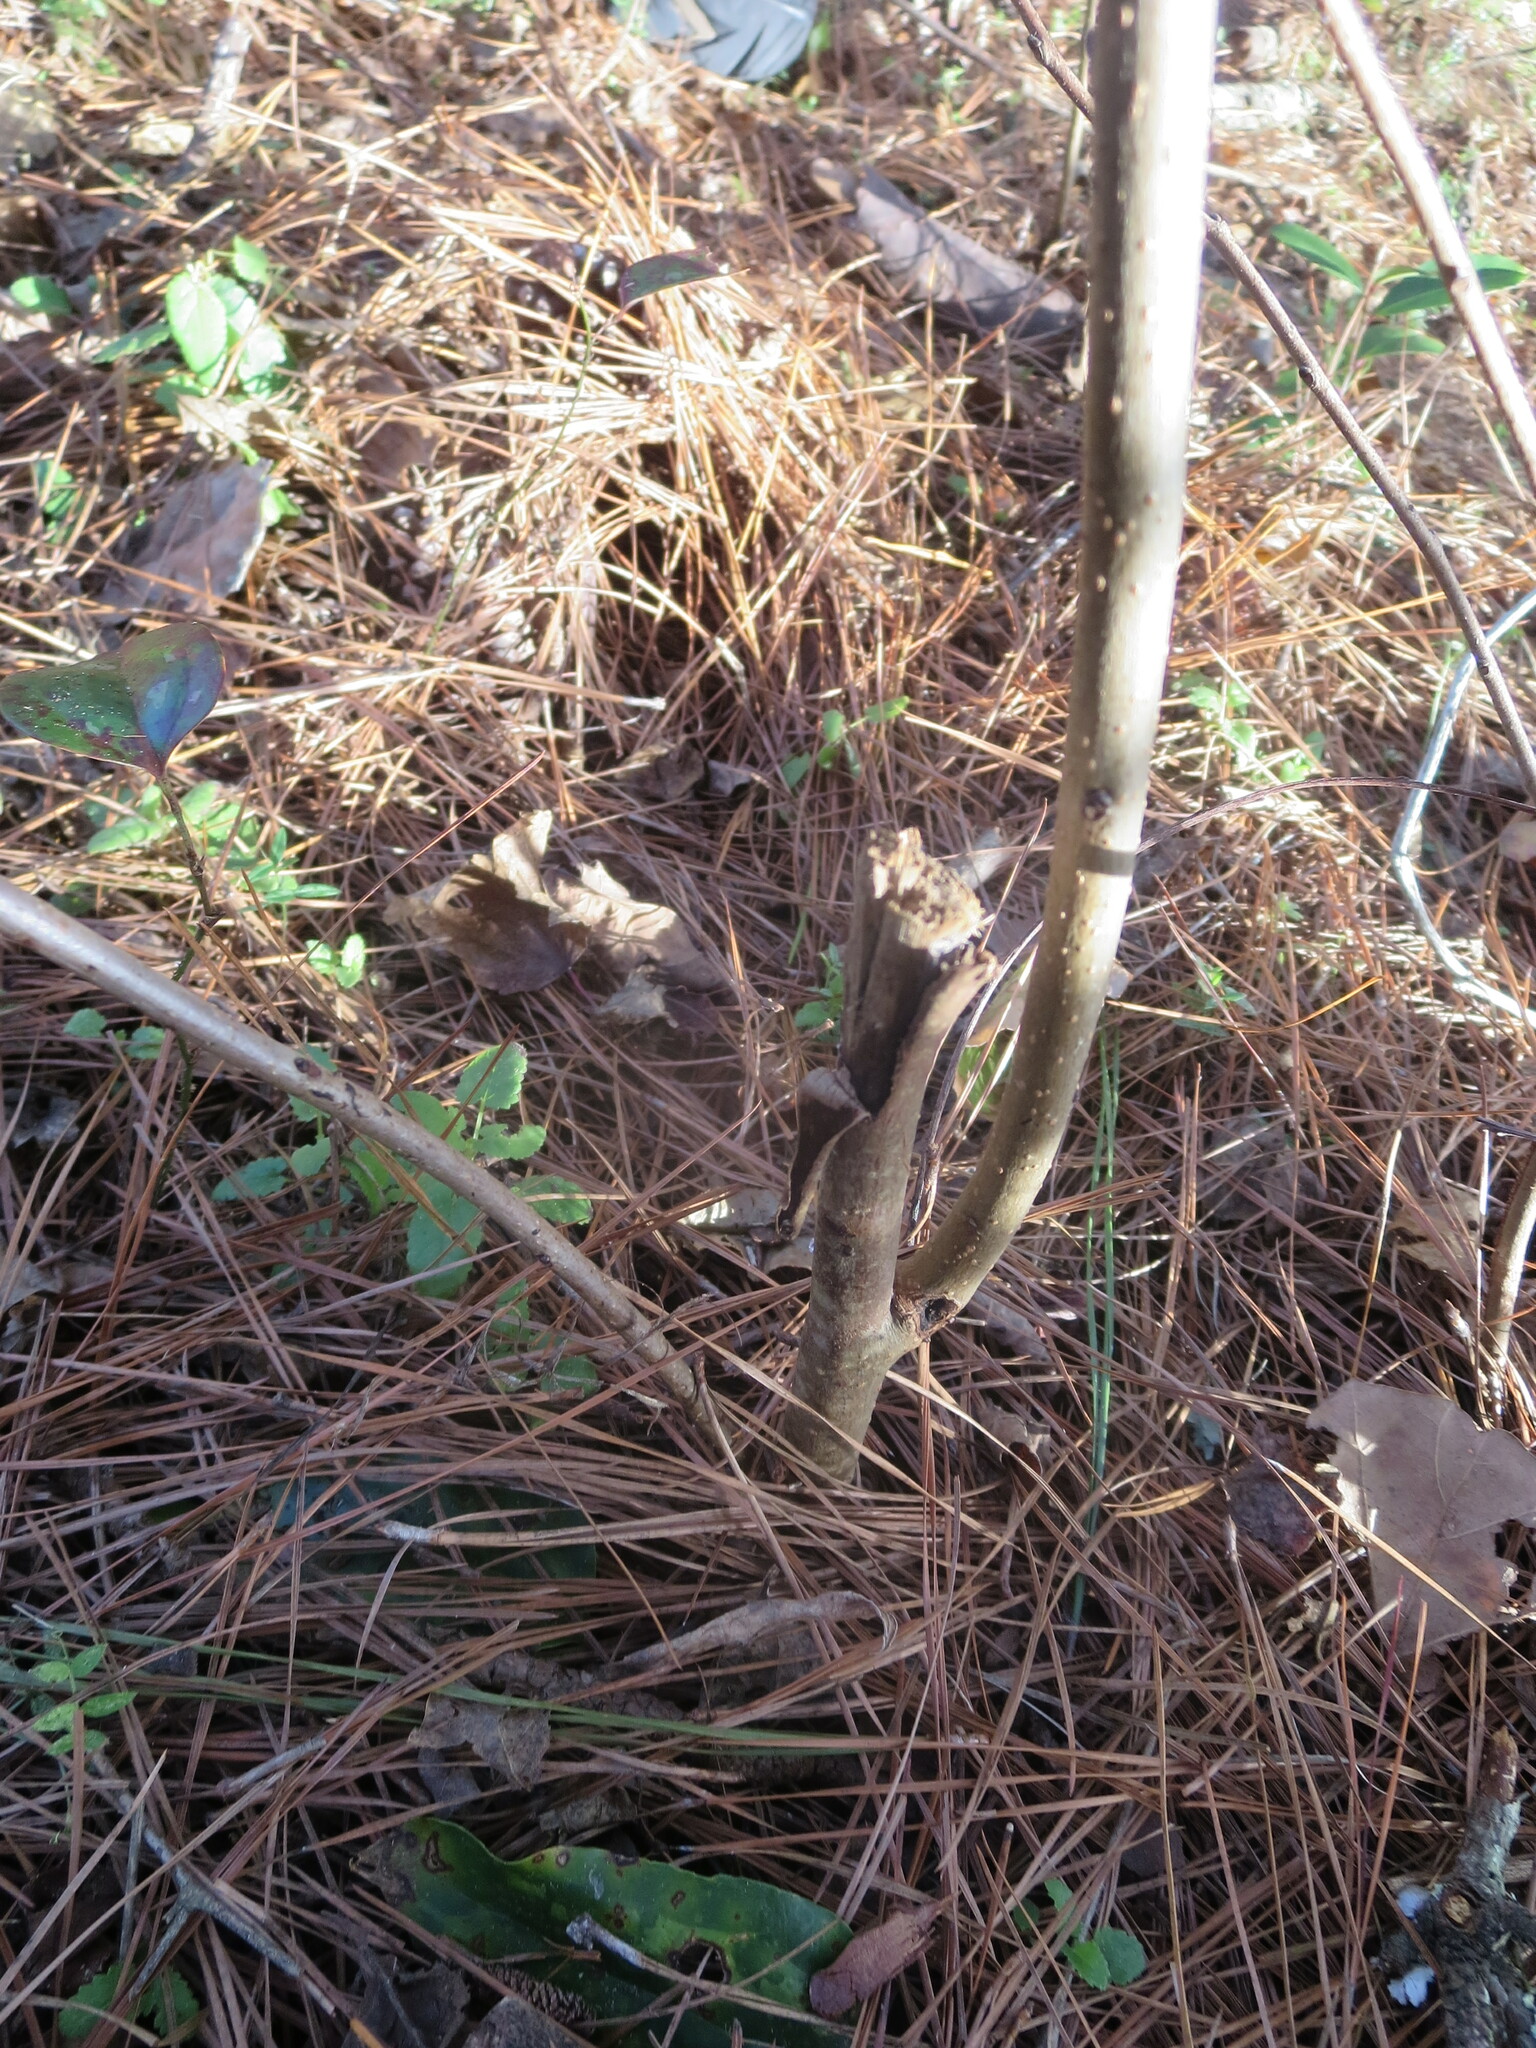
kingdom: Plantae
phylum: Tracheophyta
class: Magnoliopsida
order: Ericales
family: Ebenaceae
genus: Diospyros
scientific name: Diospyros virginiana
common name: Persimmon
